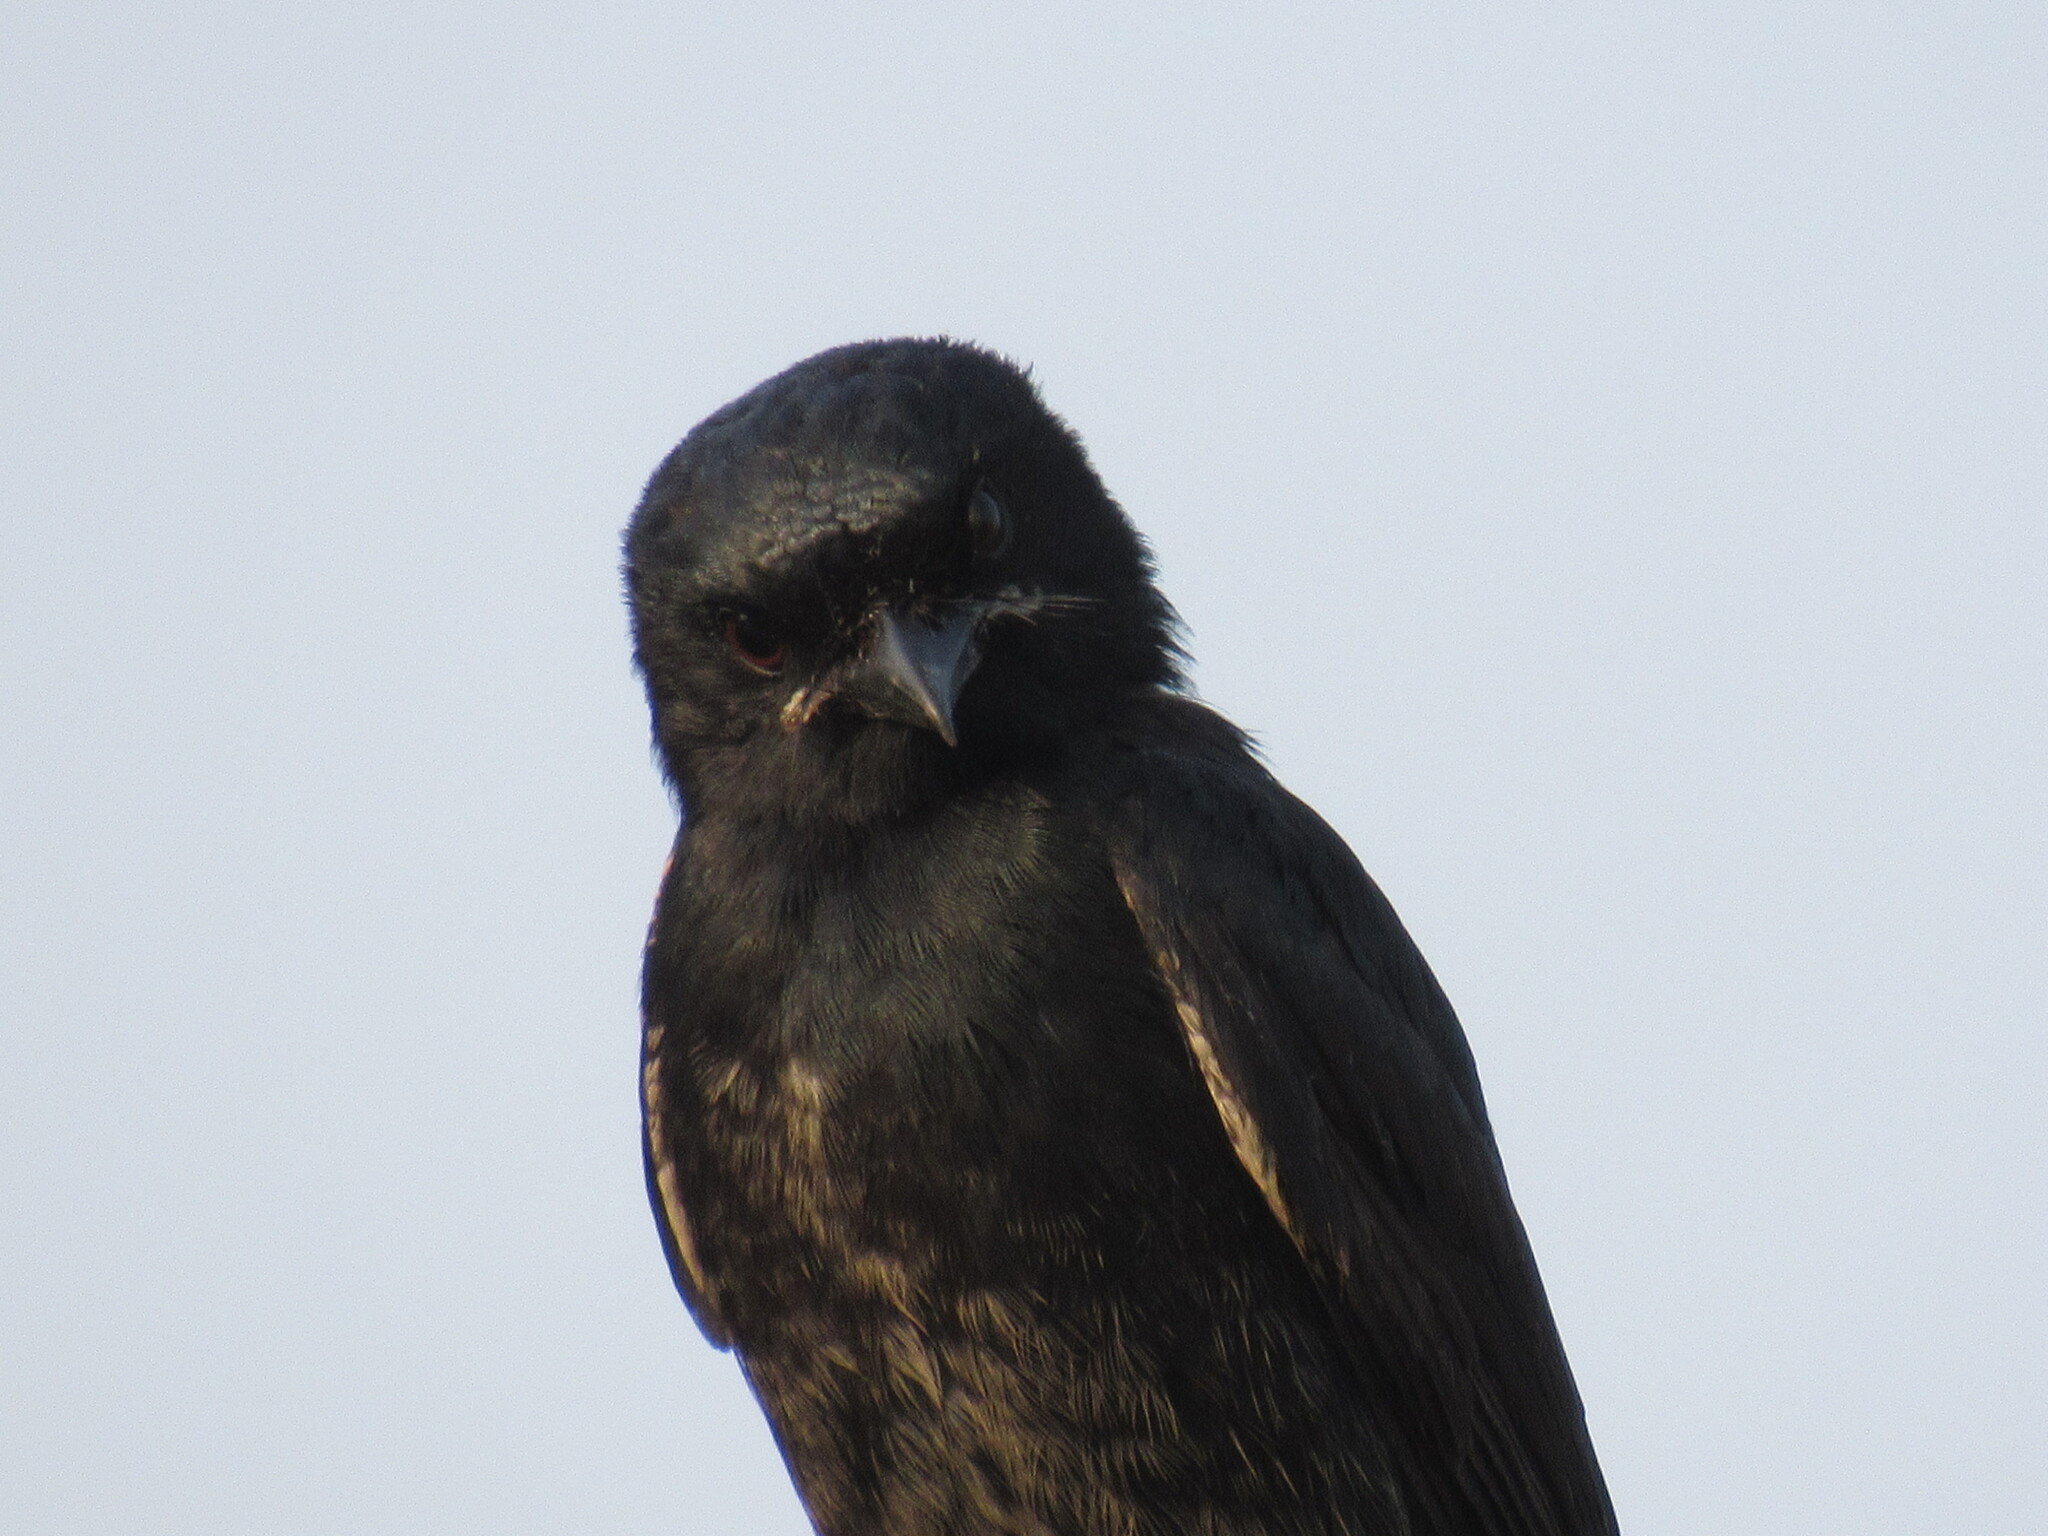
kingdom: Animalia
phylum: Chordata
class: Aves
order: Passeriformes
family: Dicruridae
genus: Dicrurus
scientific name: Dicrurus macrocercus
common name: Black drongo
